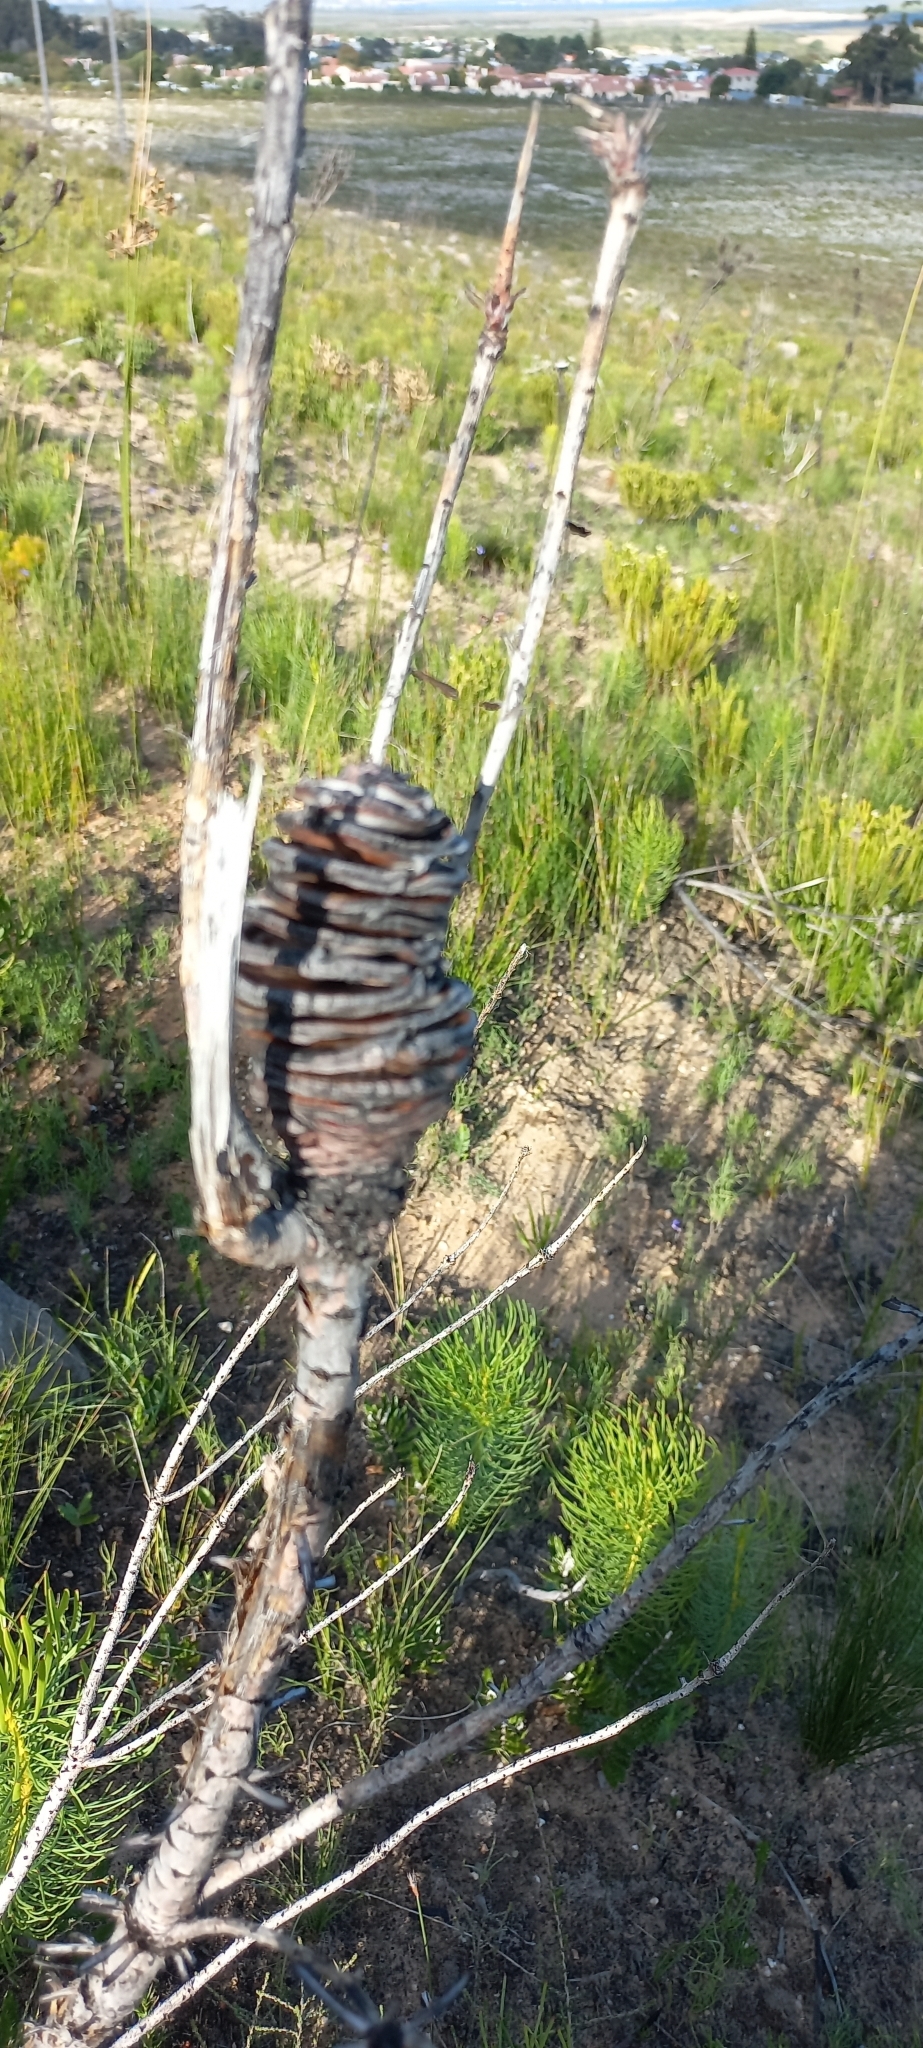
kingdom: Plantae
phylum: Tracheophyta
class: Magnoliopsida
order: Proteales
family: Proteaceae
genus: Leucadendron
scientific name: Leucadendron platyspermum
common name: Plate-seed conebush
